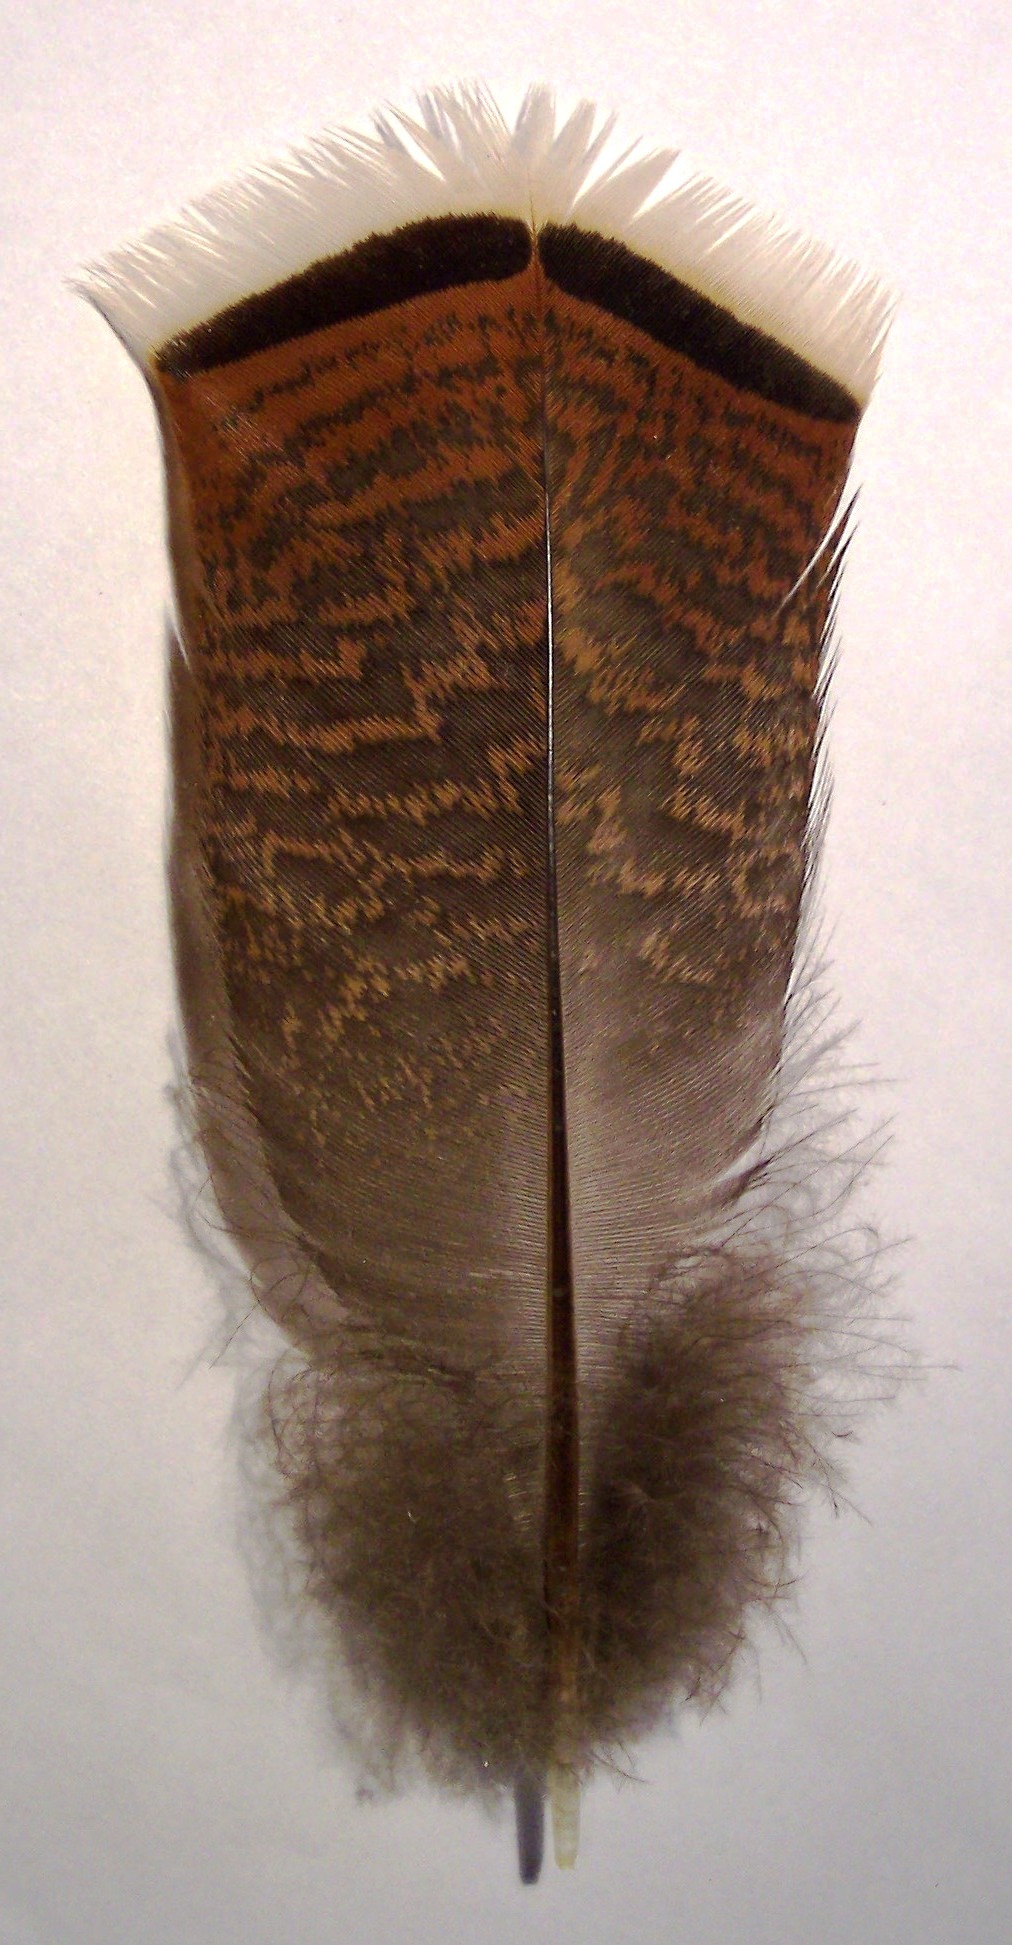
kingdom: Animalia
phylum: Chordata
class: Aves
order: Galliformes
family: Phasianidae
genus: Meleagris
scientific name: Meleagris gallopavo
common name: Wild turkey
